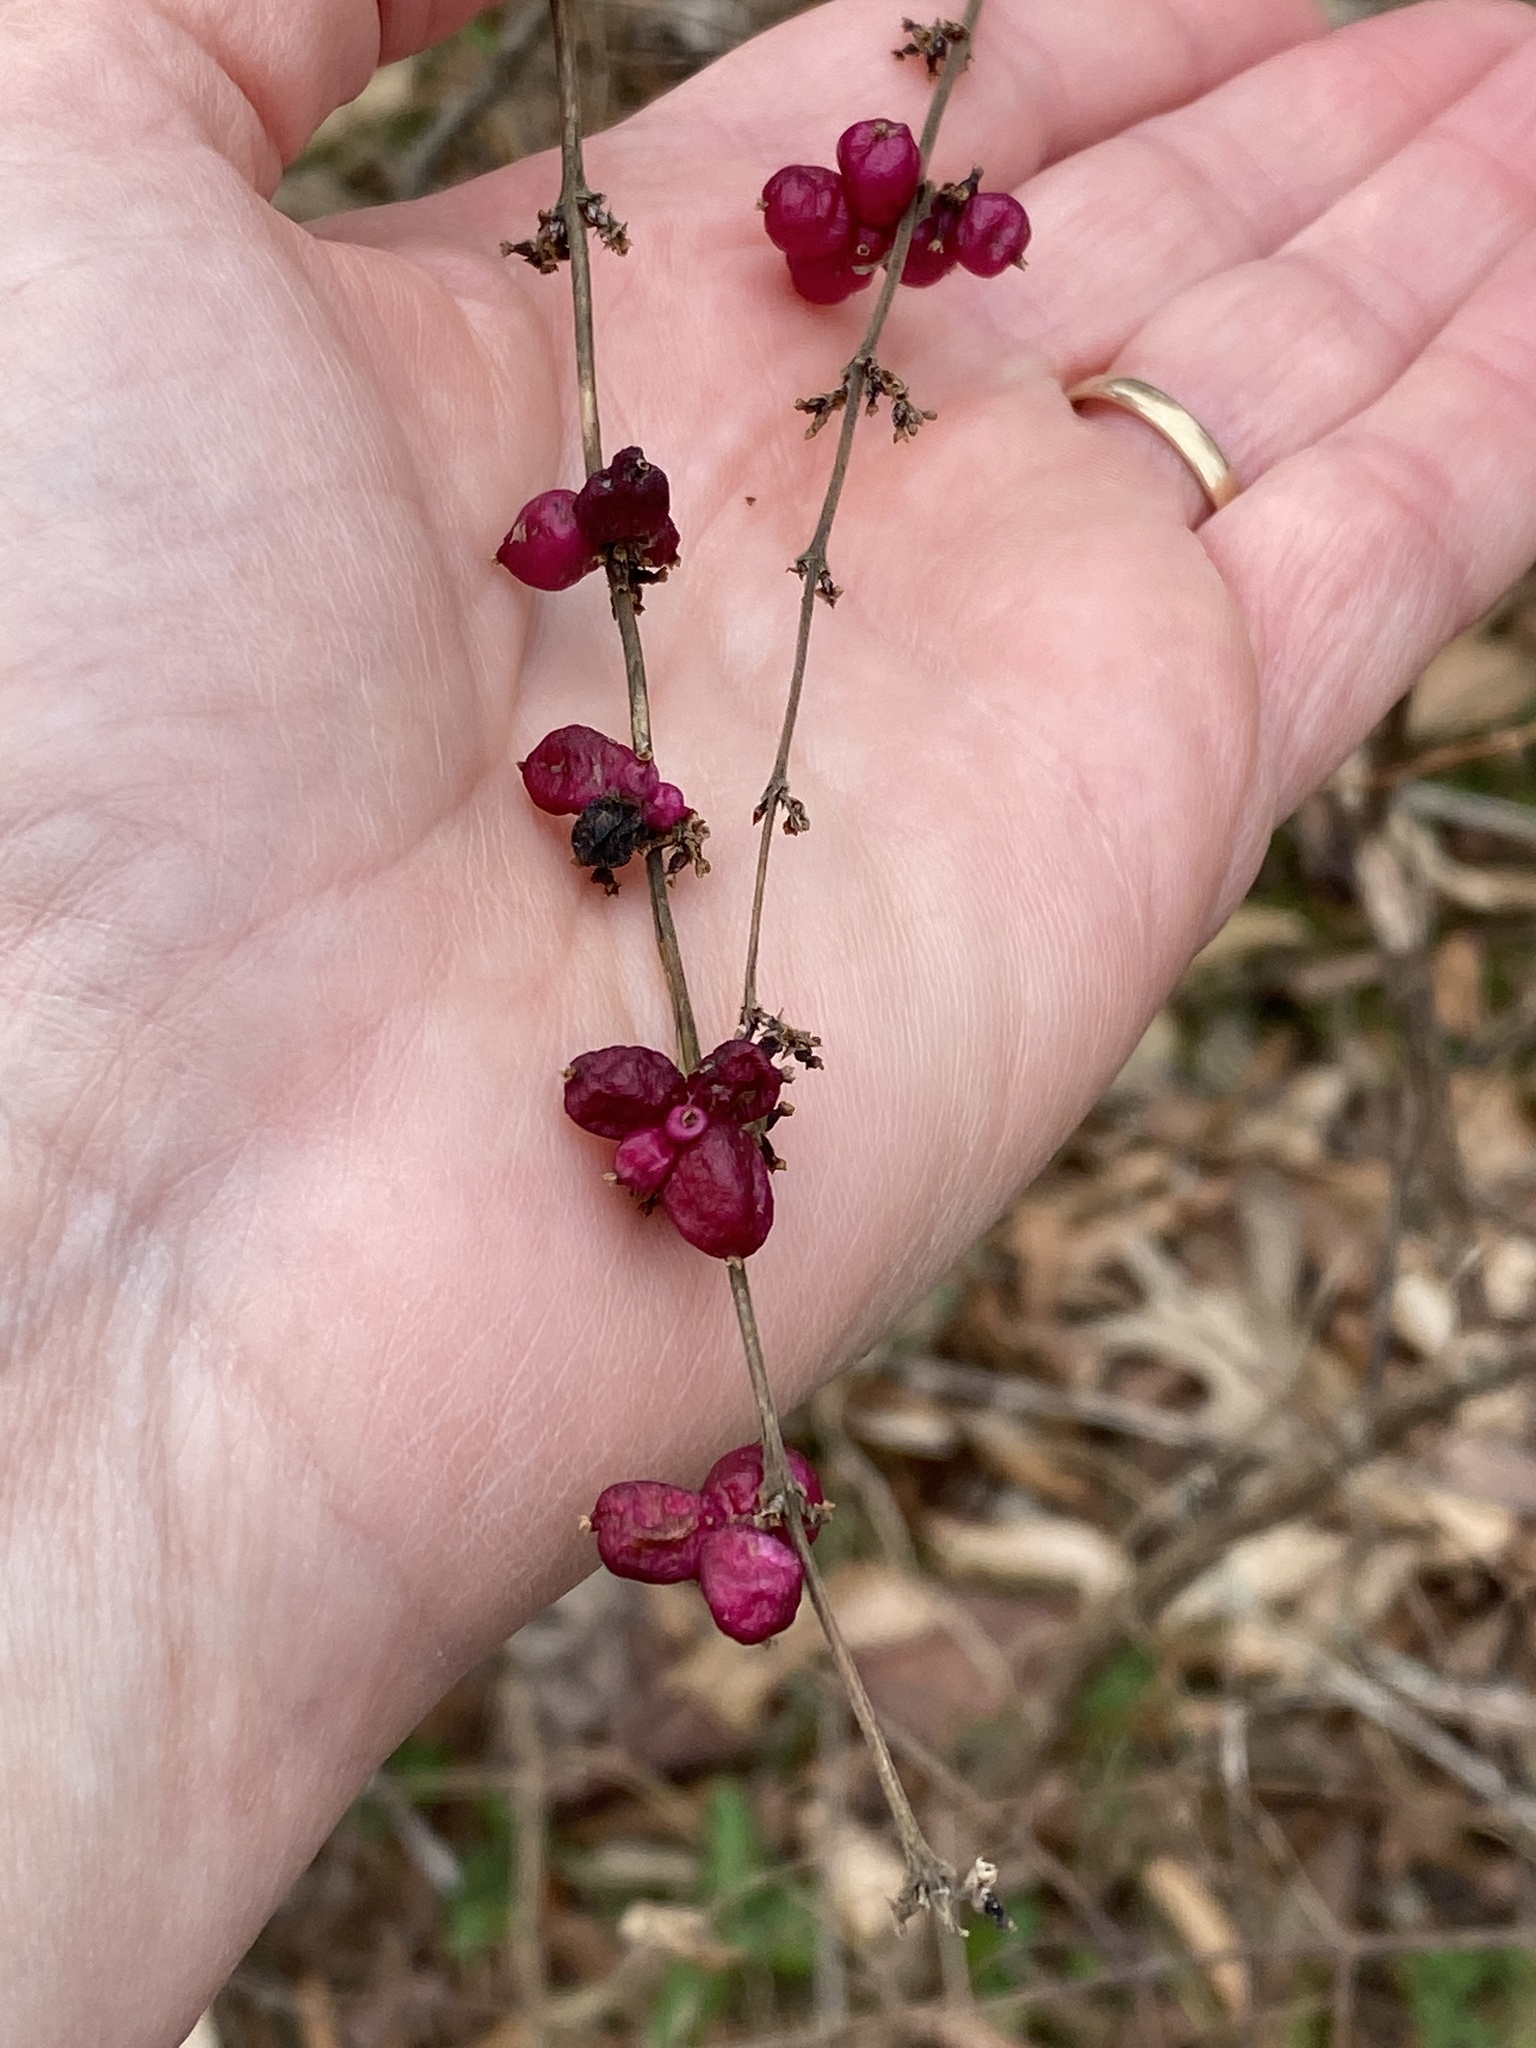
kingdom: Plantae
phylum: Tracheophyta
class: Magnoliopsida
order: Dipsacales
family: Caprifoliaceae
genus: Symphoricarpos
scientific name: Symphoricarpos orbiculatus
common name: Coralberry
